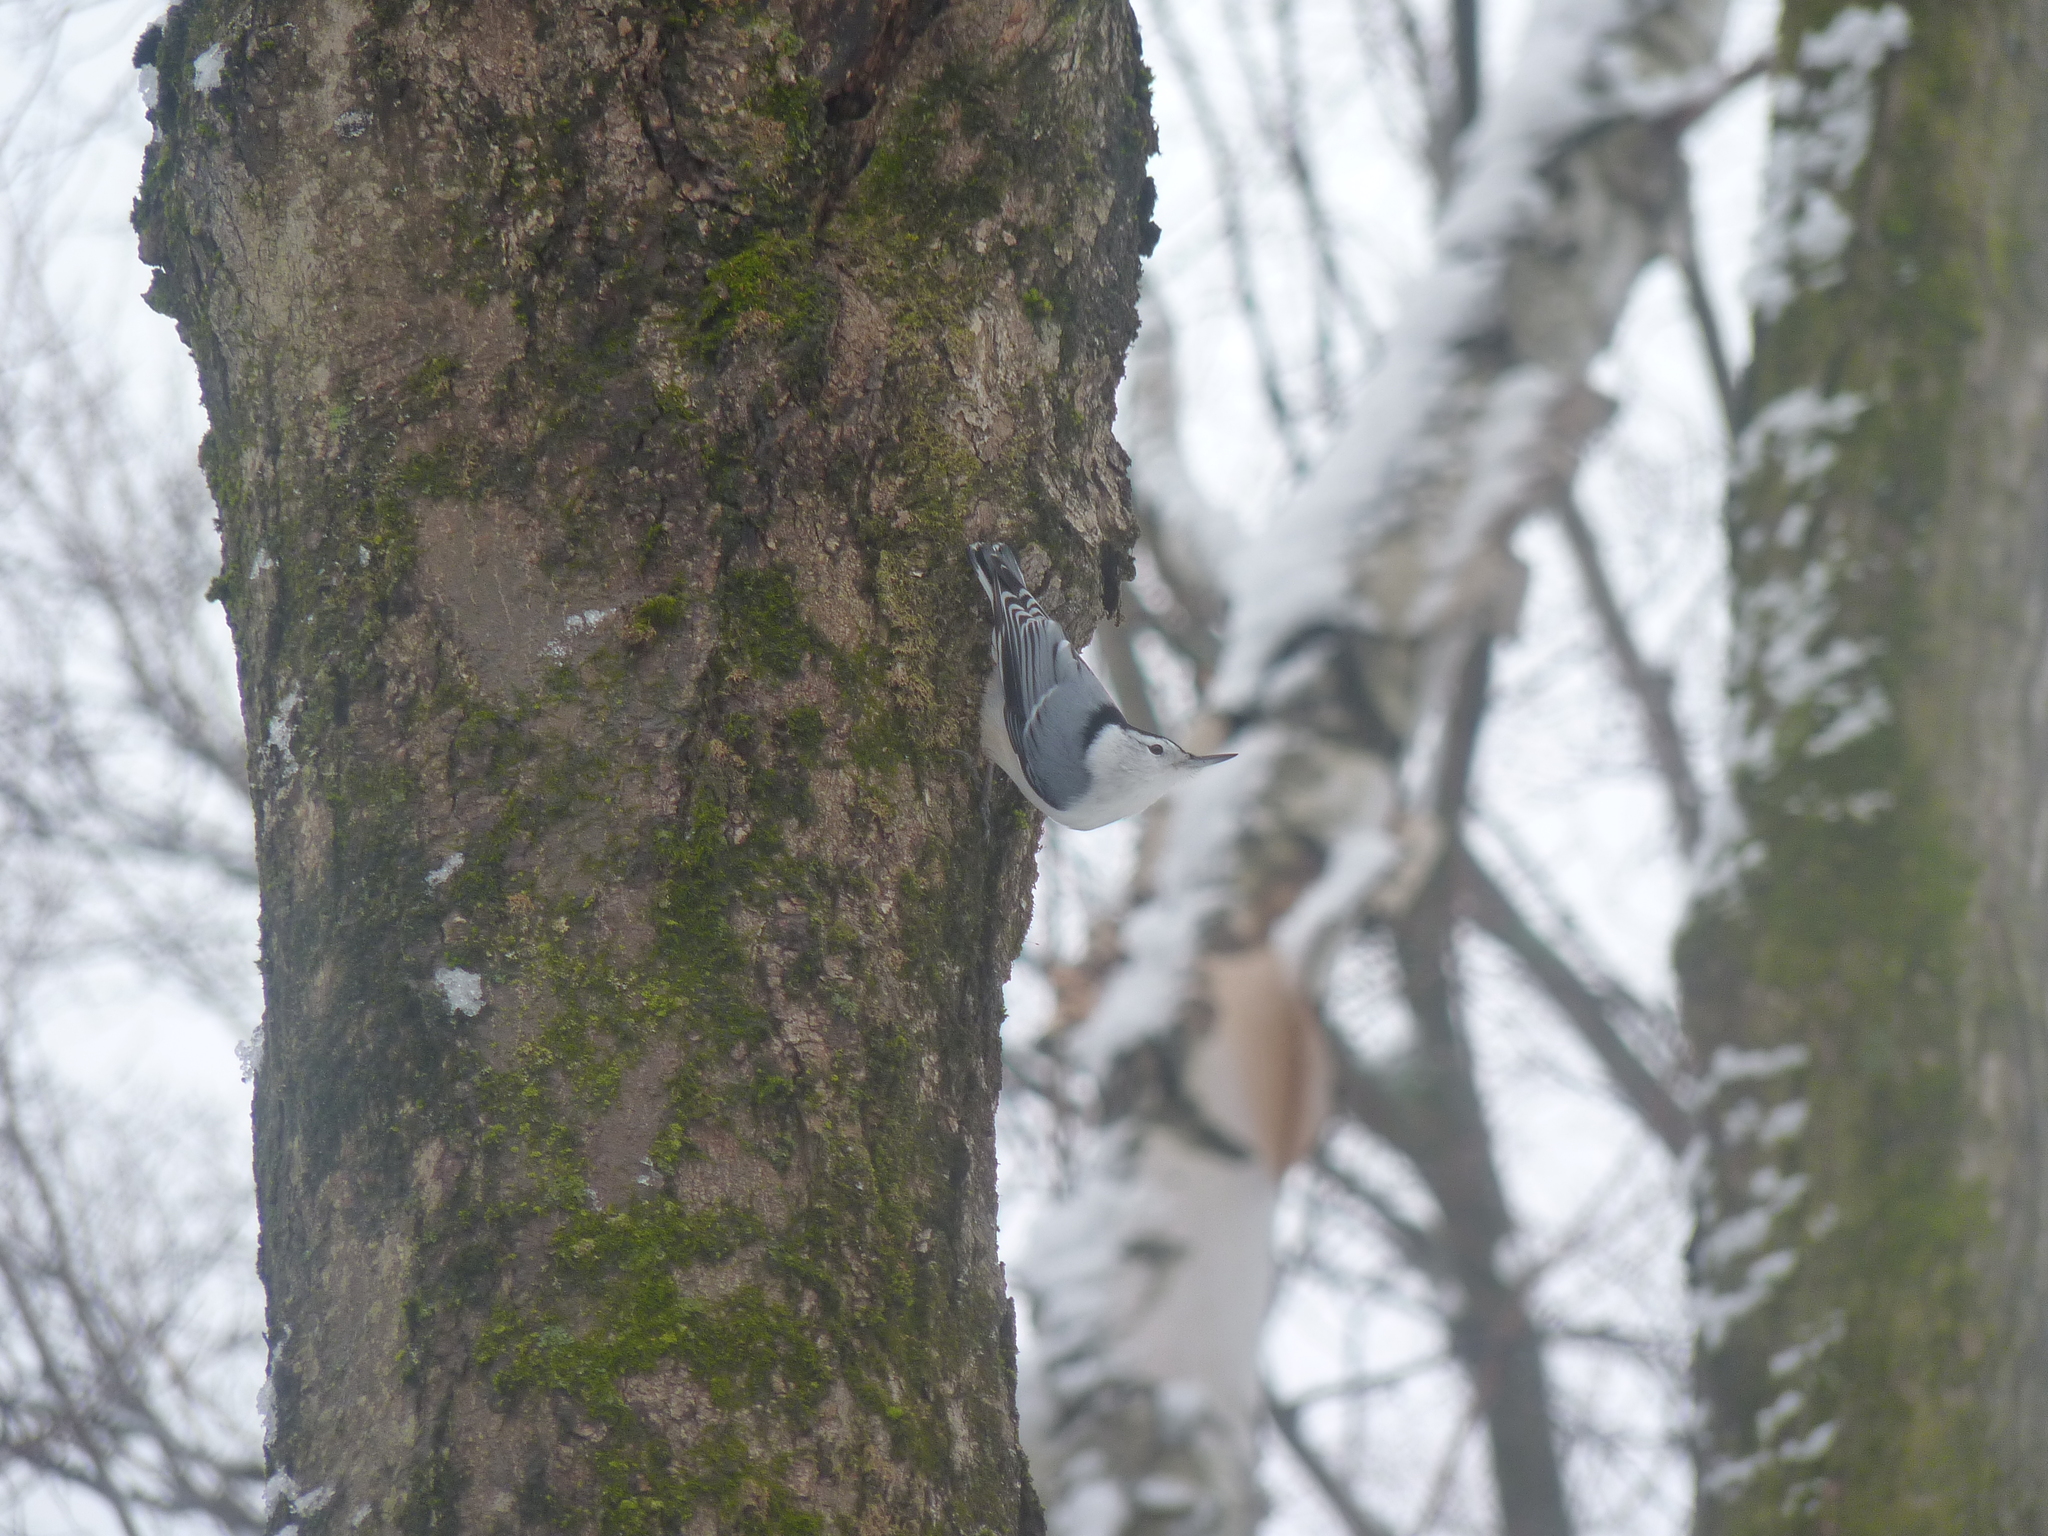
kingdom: Animalia
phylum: Chordata
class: Aves
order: Passeriformes
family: Sittidae
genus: Sitta
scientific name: Sitta carolinensis
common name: White-breasted nuthatch
